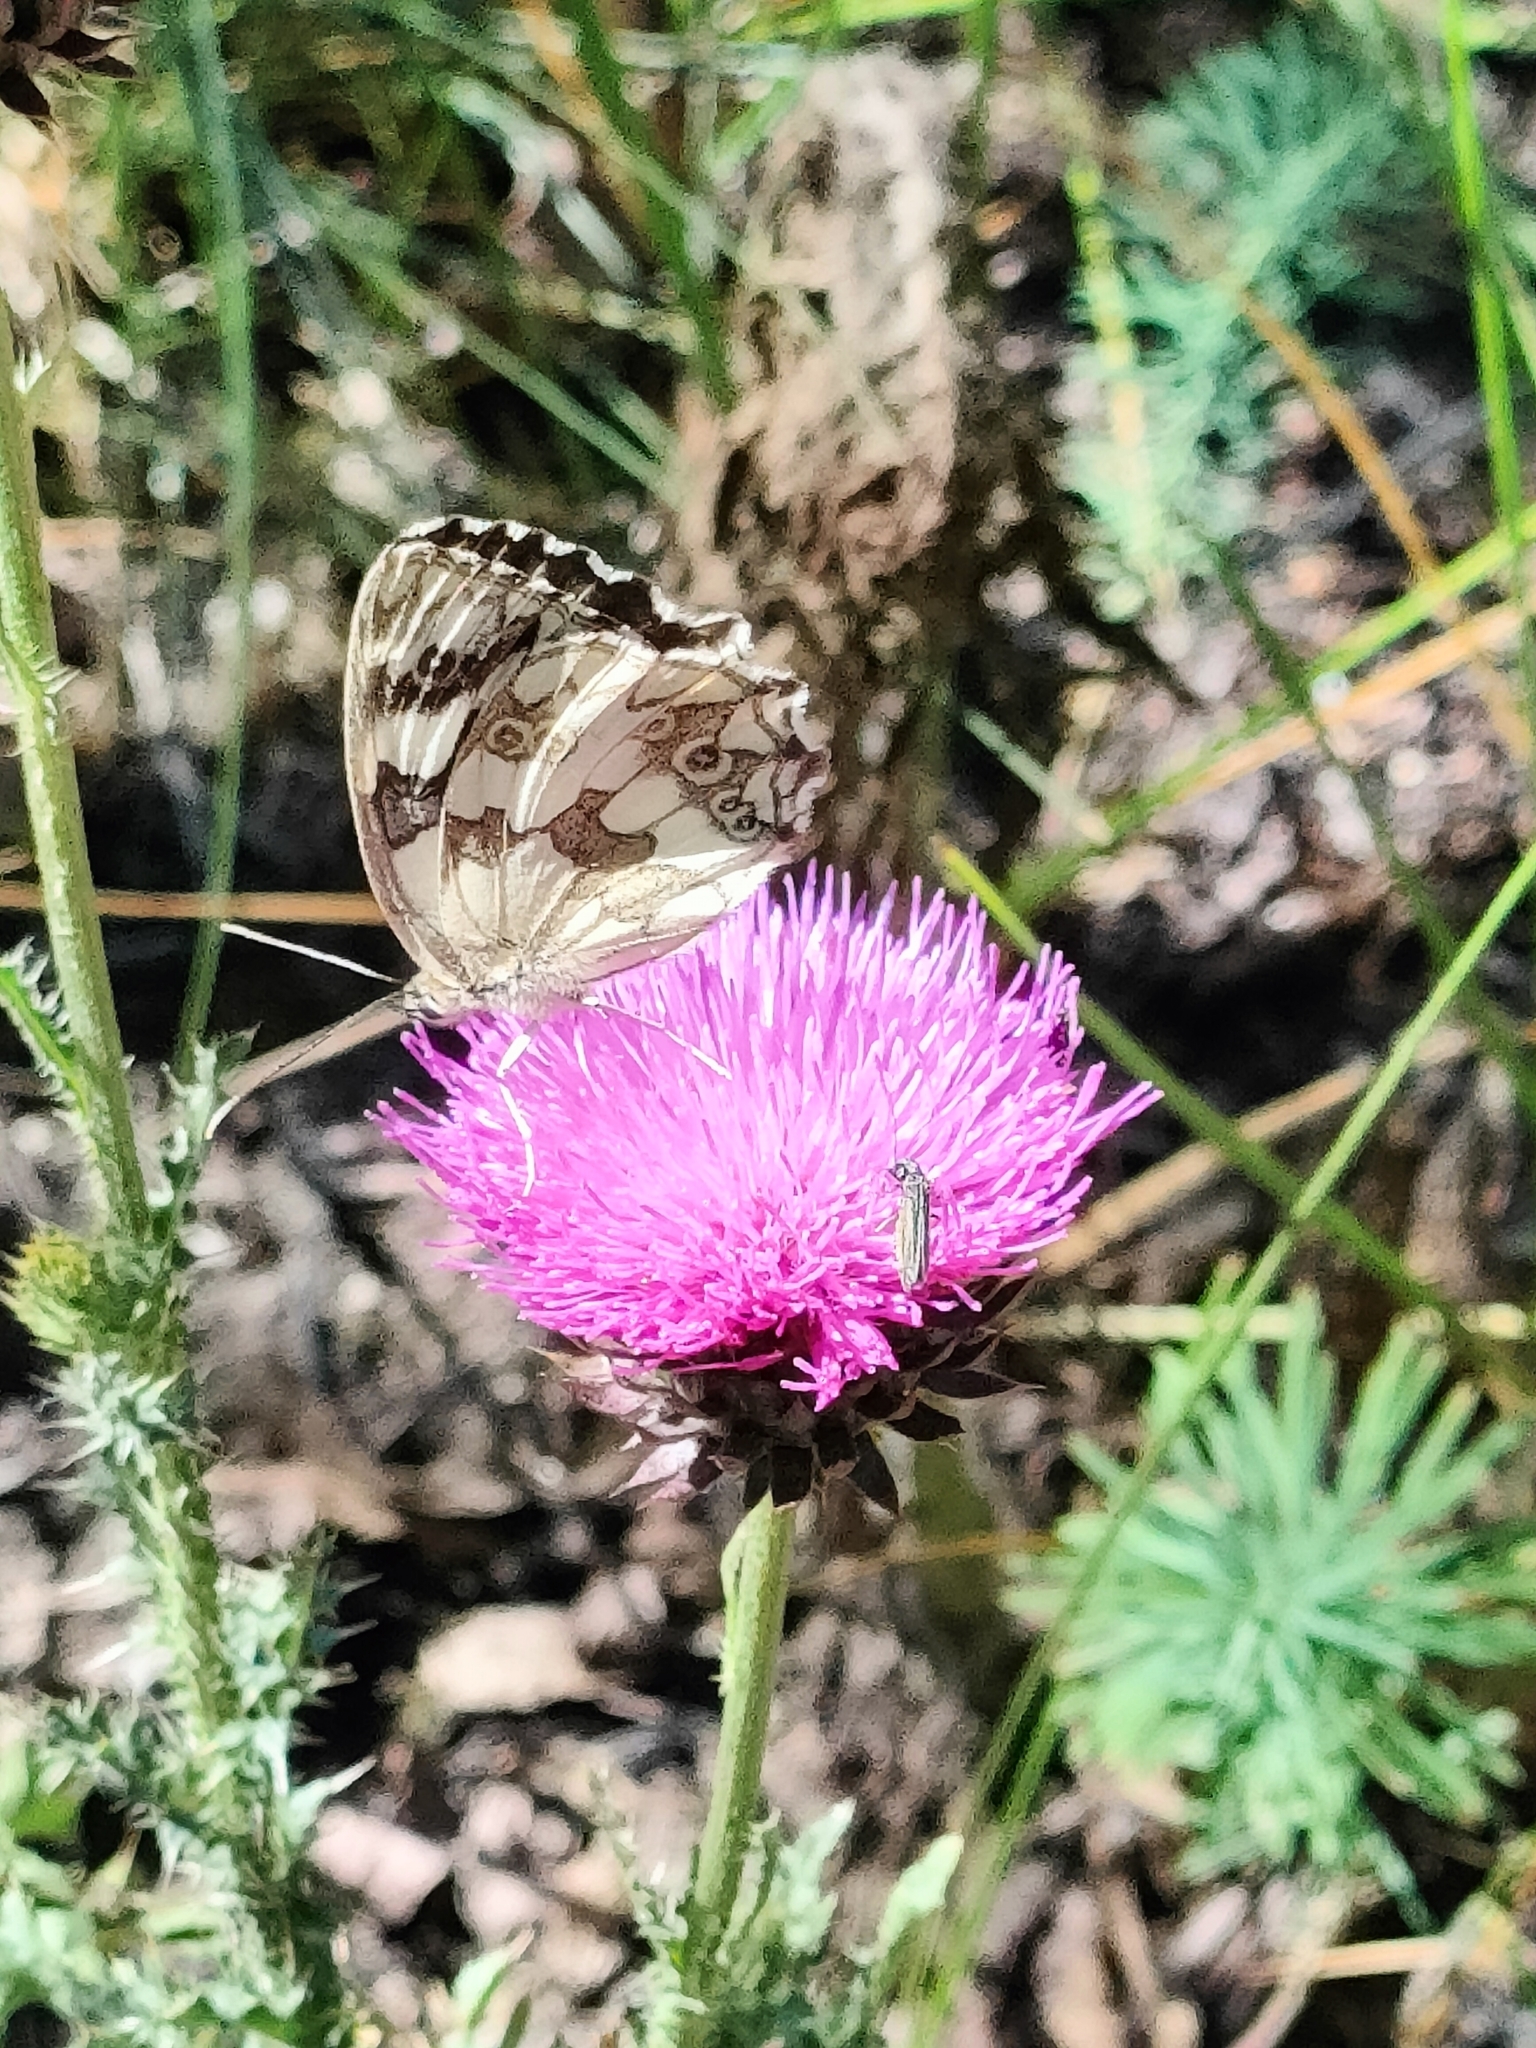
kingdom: Animalia
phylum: Arthropoda
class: Insecta
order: Lepidoptera
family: Nymphalidae
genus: Melanargia
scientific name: Melanargia galathea
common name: Marbled white
